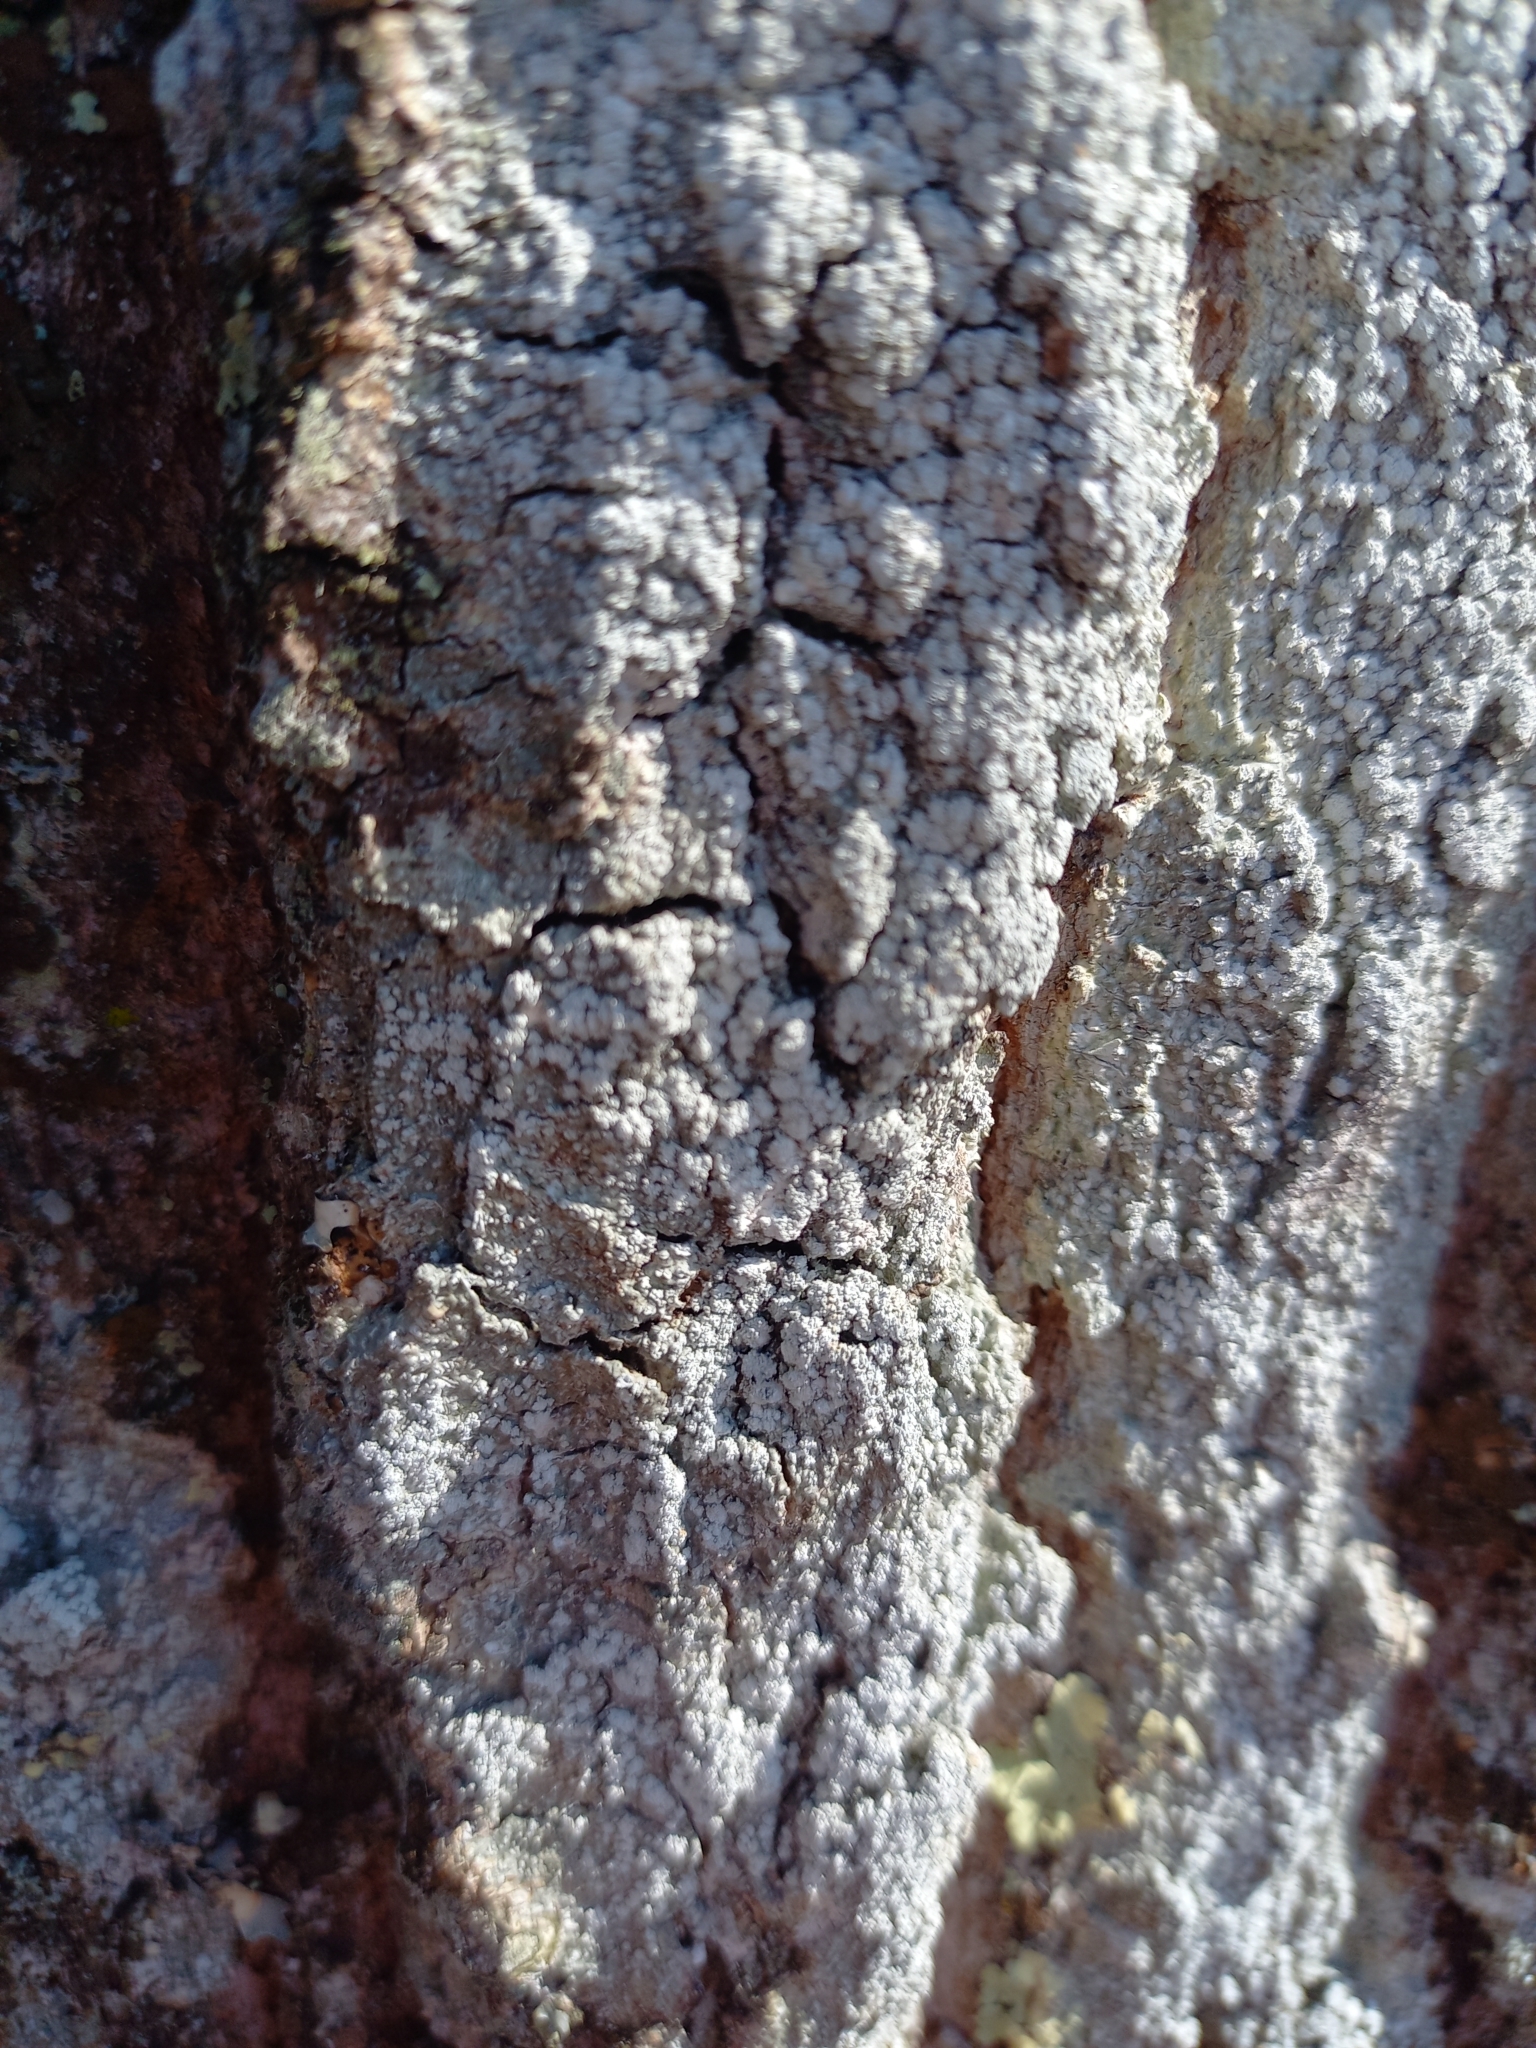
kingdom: Fungi
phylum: Ascomycota
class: Lecanoromycetes
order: Pertusariales
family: Pertusariaceae
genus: Lepra
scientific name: Lepra amara
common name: Bitter wart lichen
